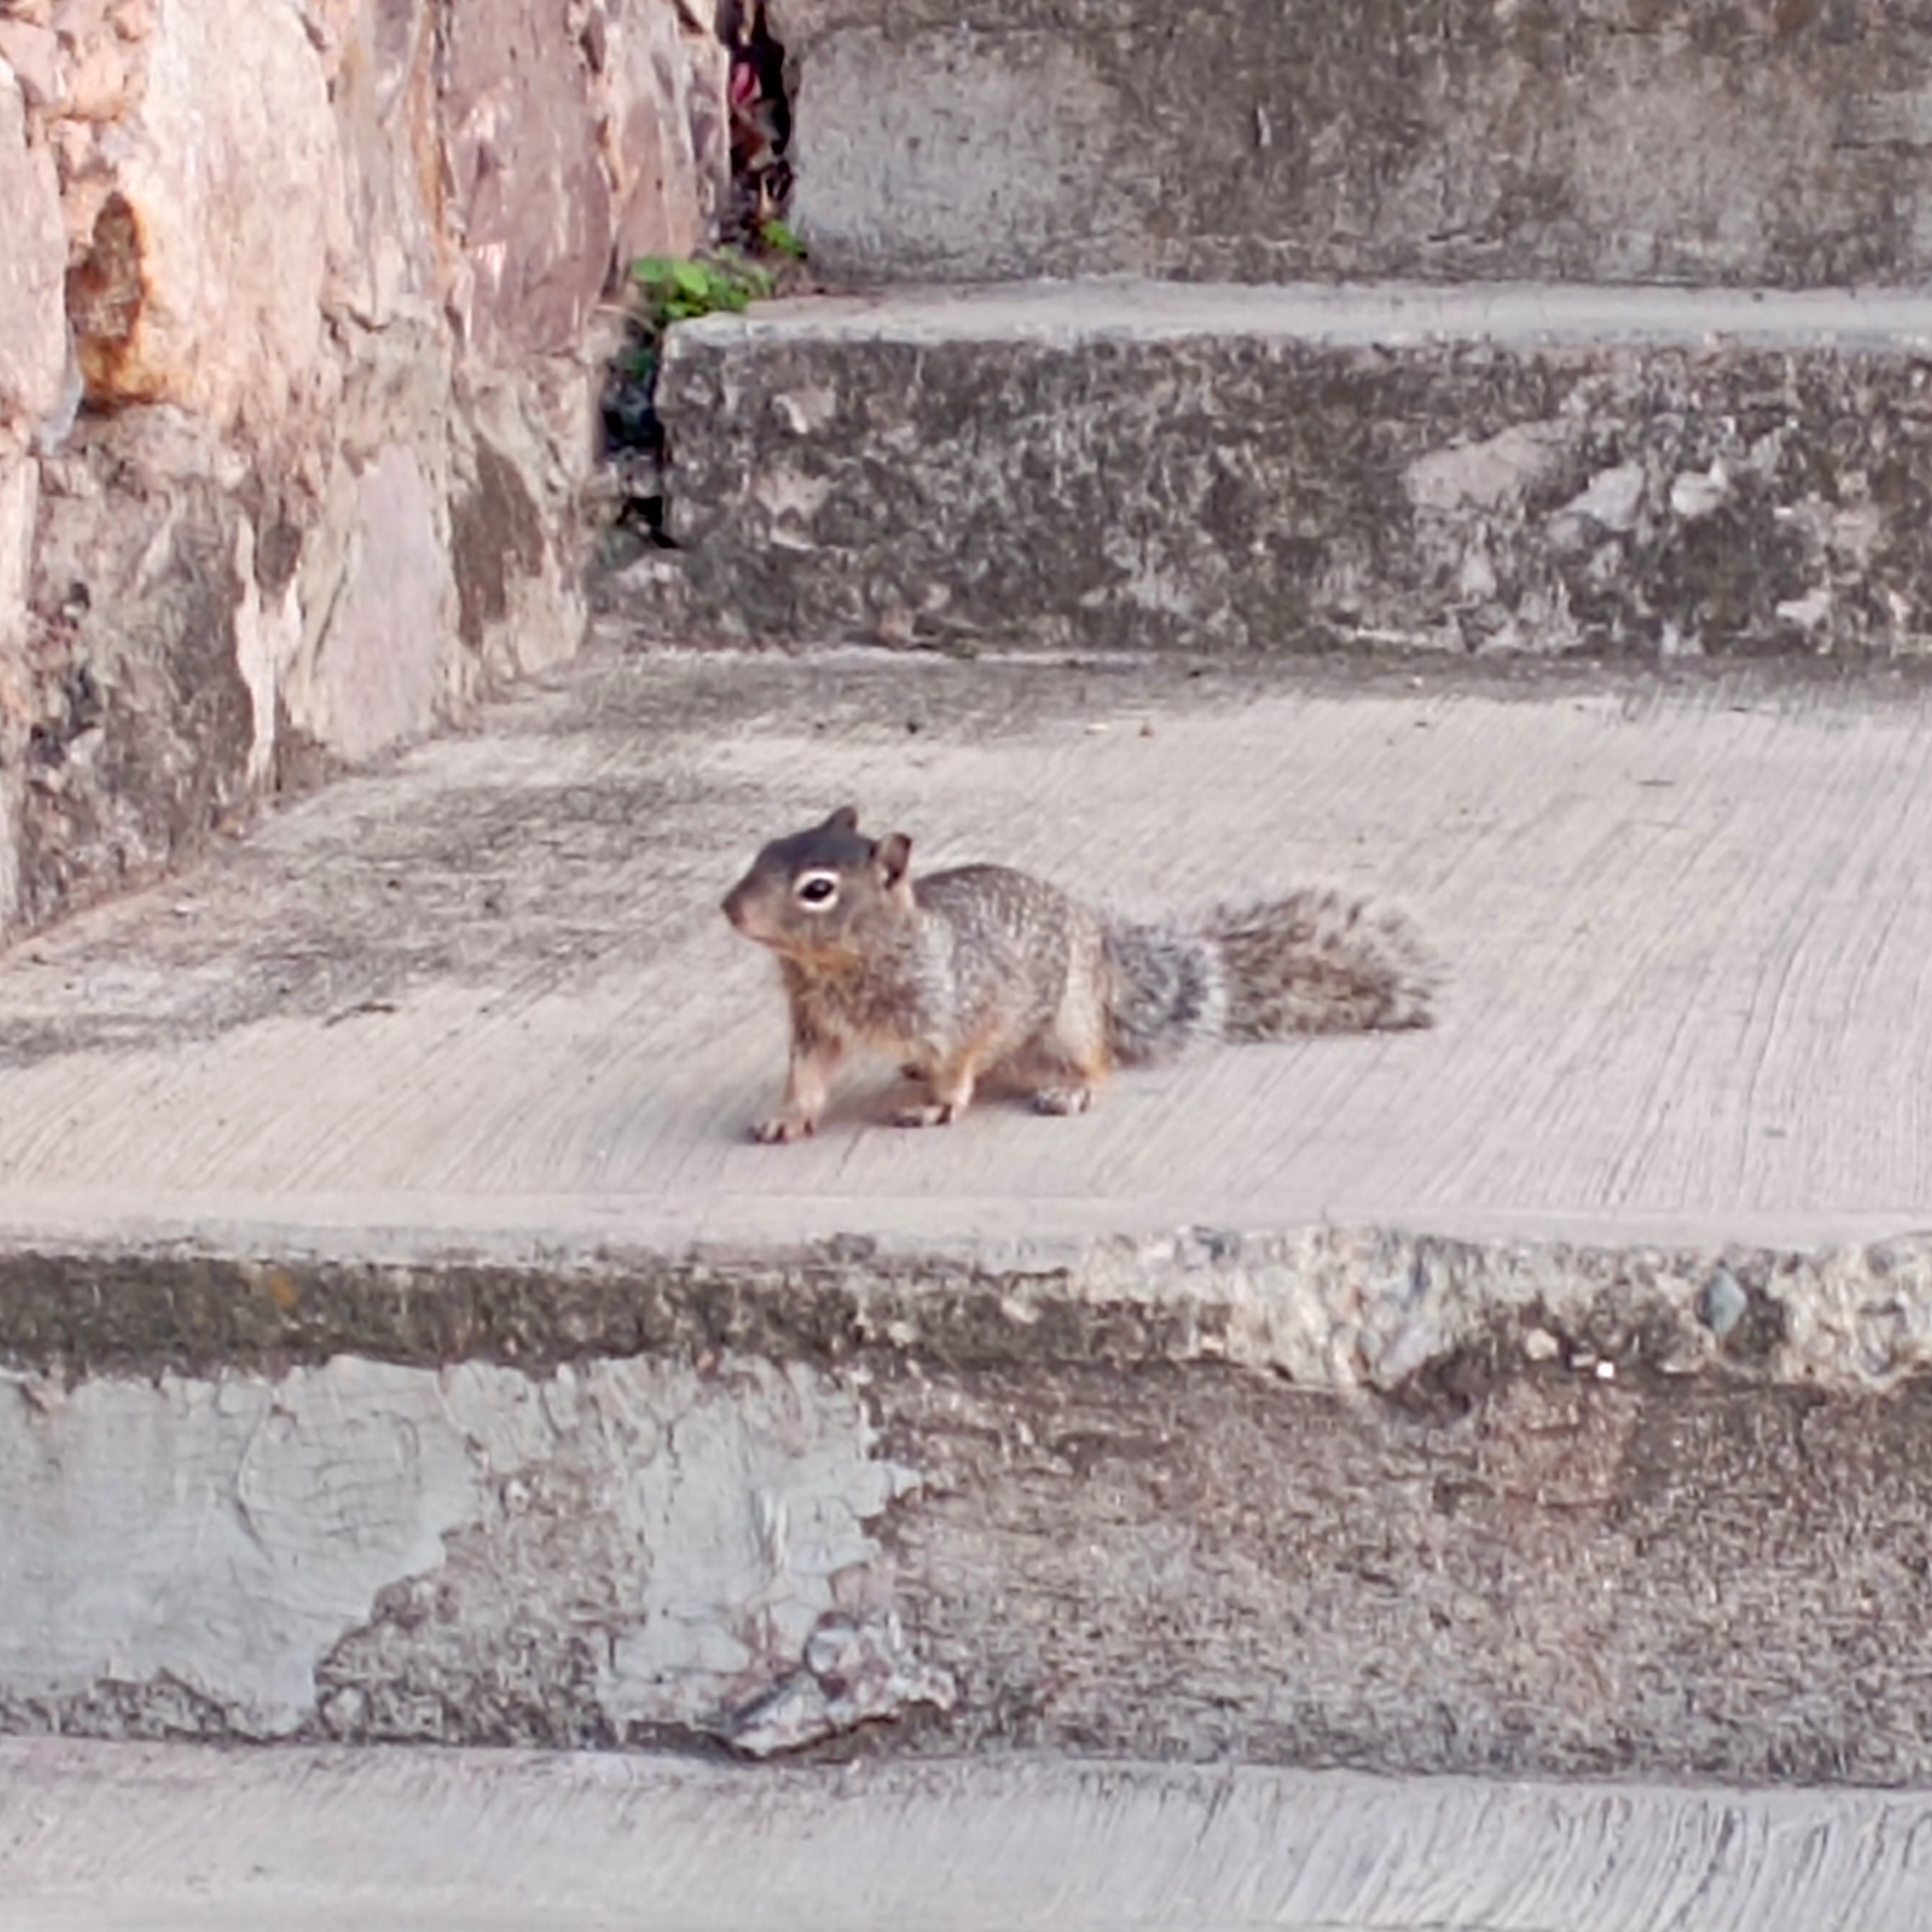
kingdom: Animalia
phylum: Chordata
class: Mammalia
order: Rodentia
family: Sciuridae
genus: Otospermophilus
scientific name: Otospermophilus variegatus
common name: Rock squirrel
